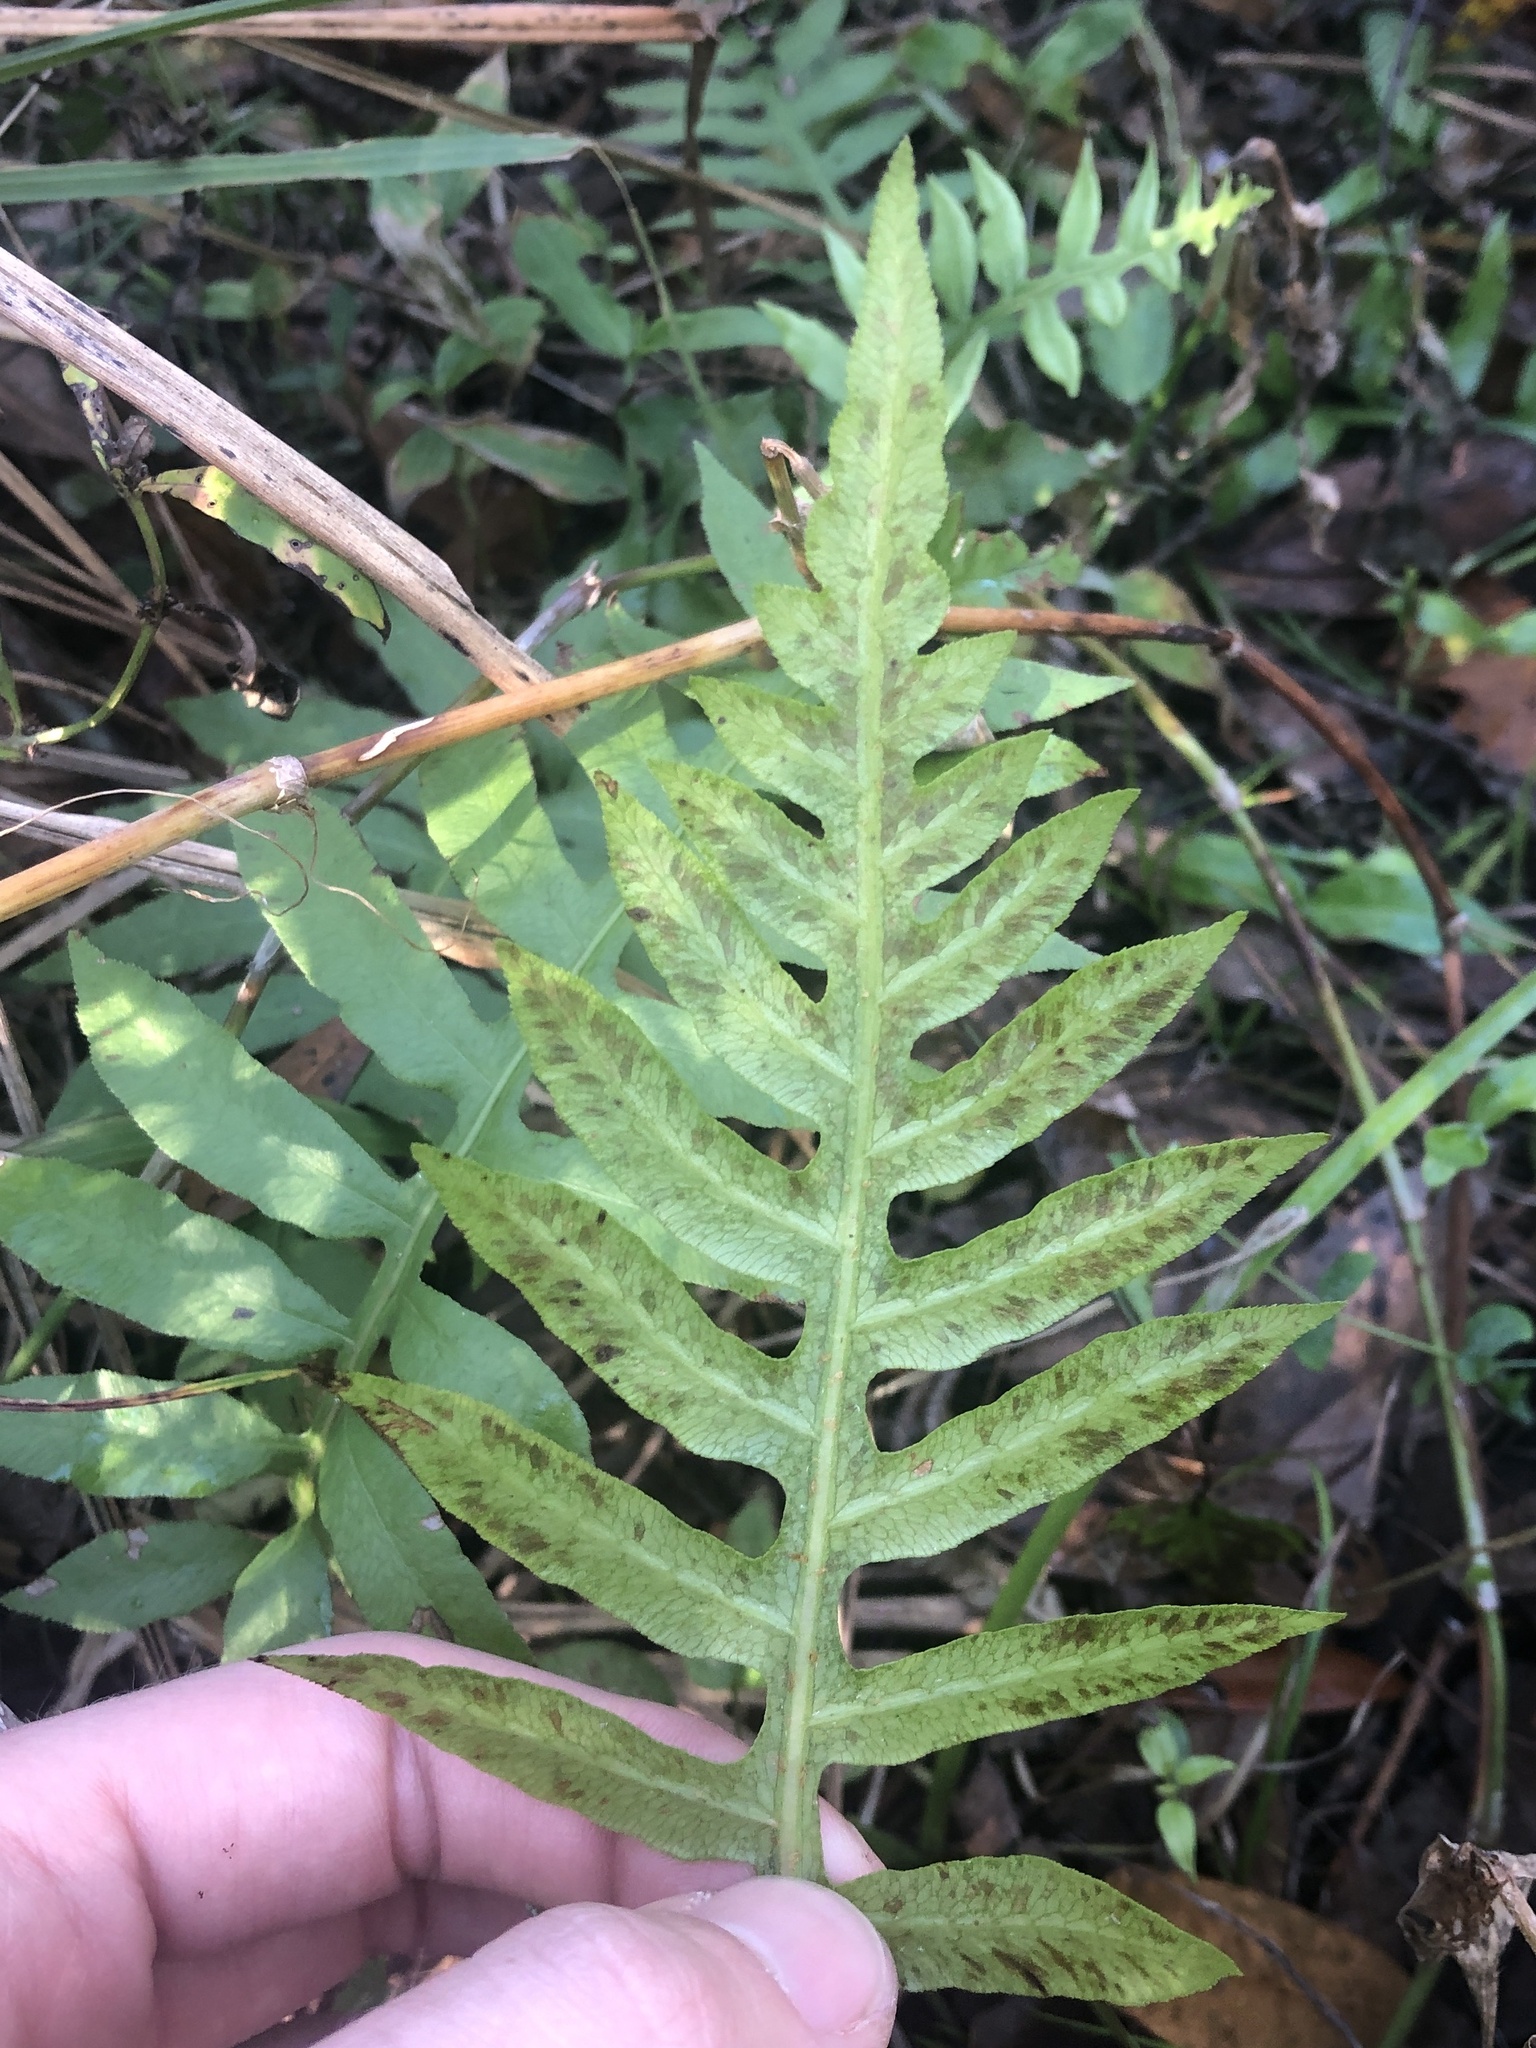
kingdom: Plantae
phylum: Tracheophyta
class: Polypodiopsida
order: Polypodiales
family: Blechnaceae
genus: Lorinseria
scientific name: Lorinseria areolata
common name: Dwarf chain fern
